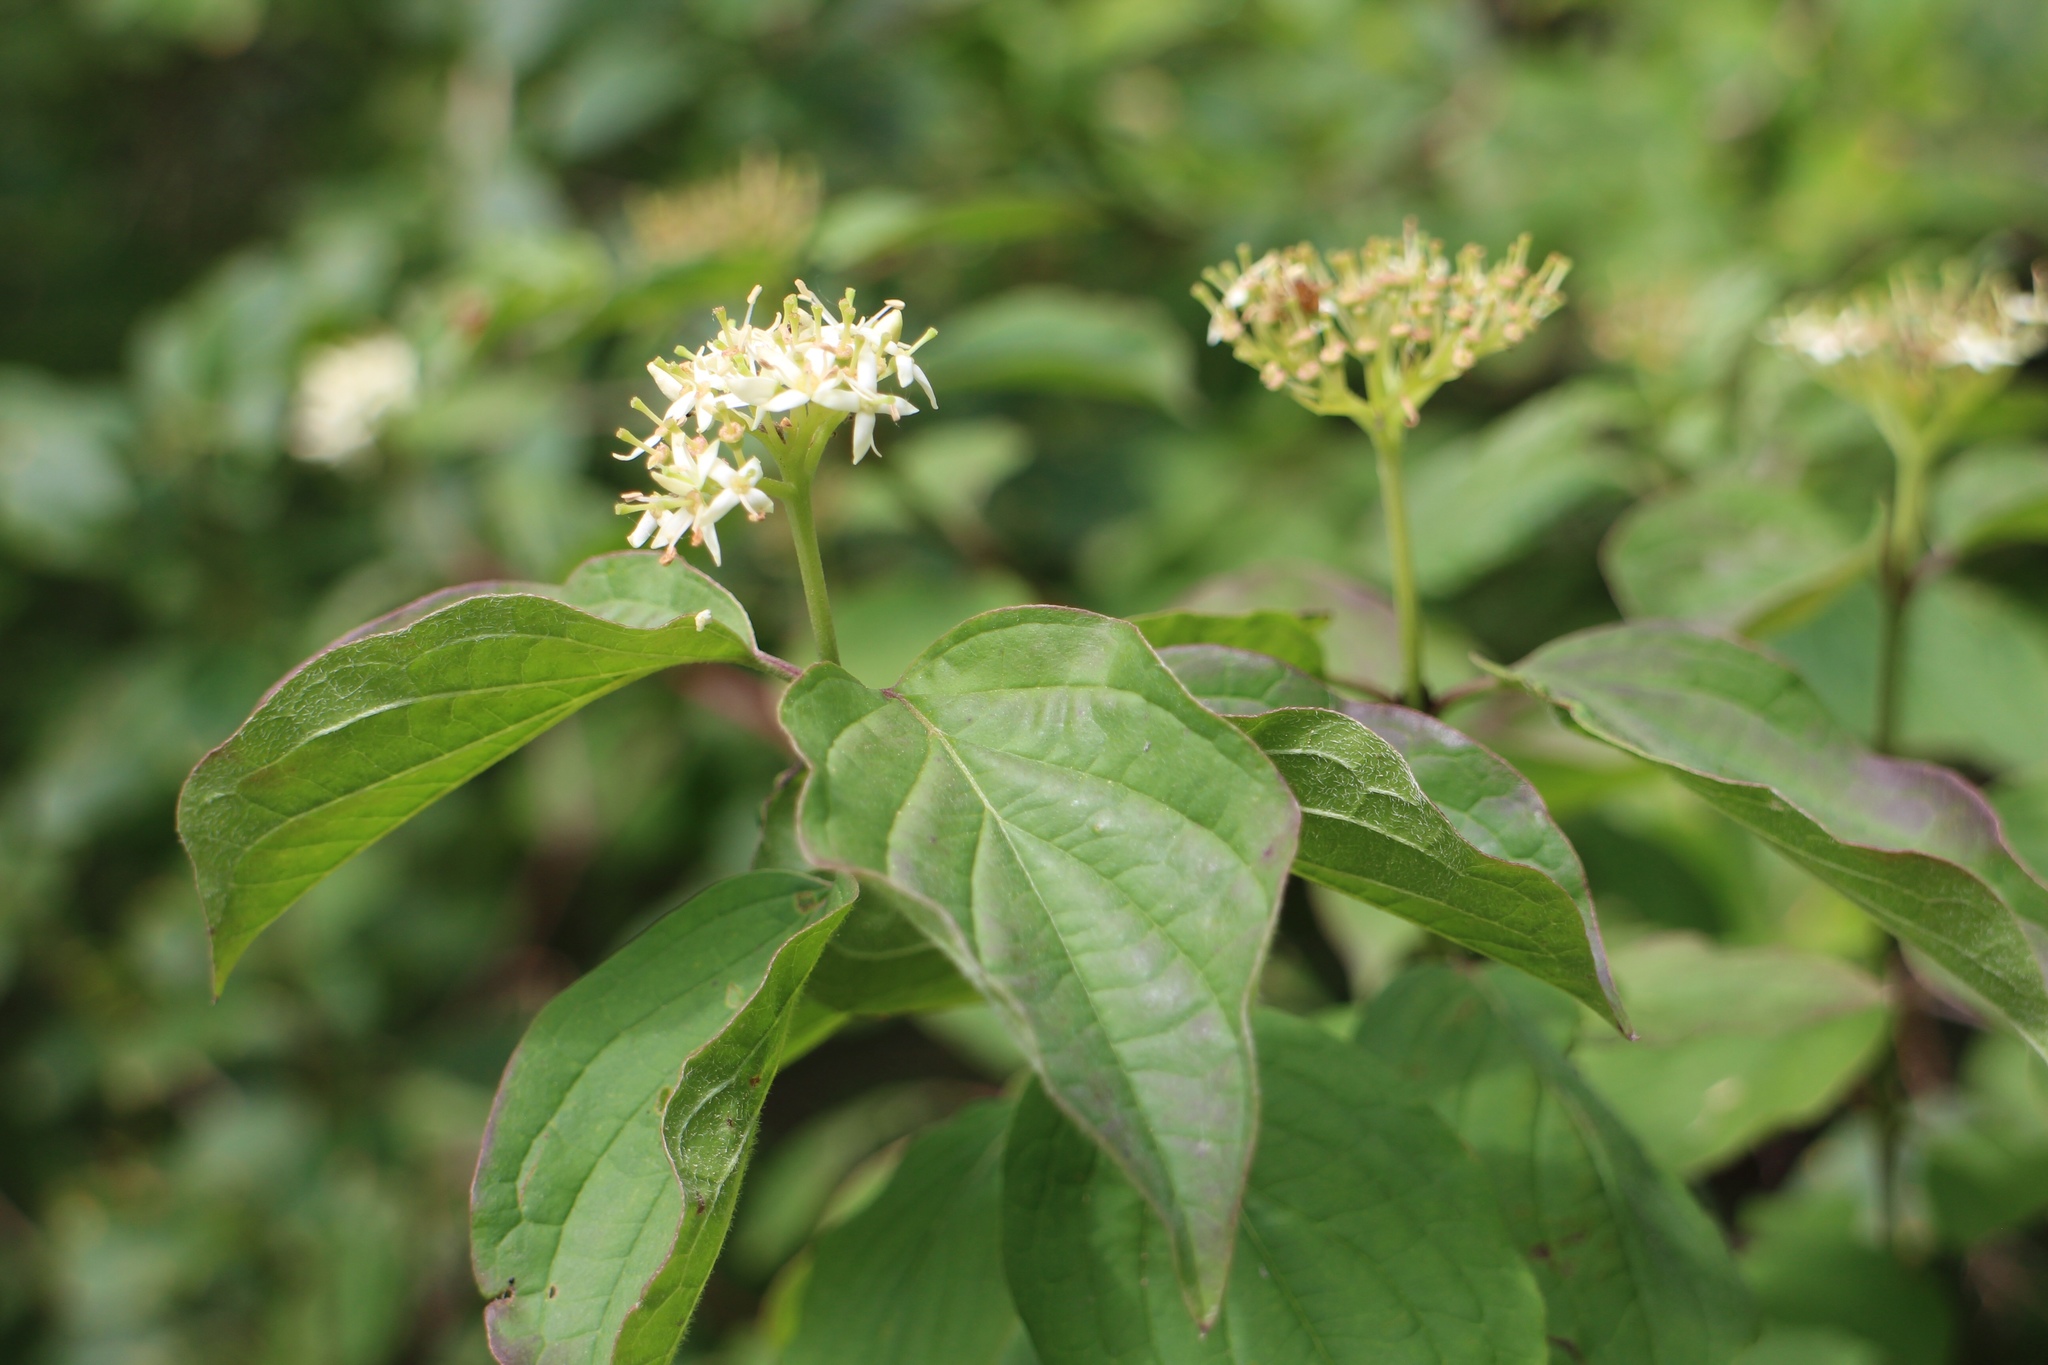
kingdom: Plantae
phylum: Tracheophyta
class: Magnoliopsida
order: Cornales
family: Cornaceae
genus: Cornus
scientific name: Cornus sanguinea
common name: Dogwood
